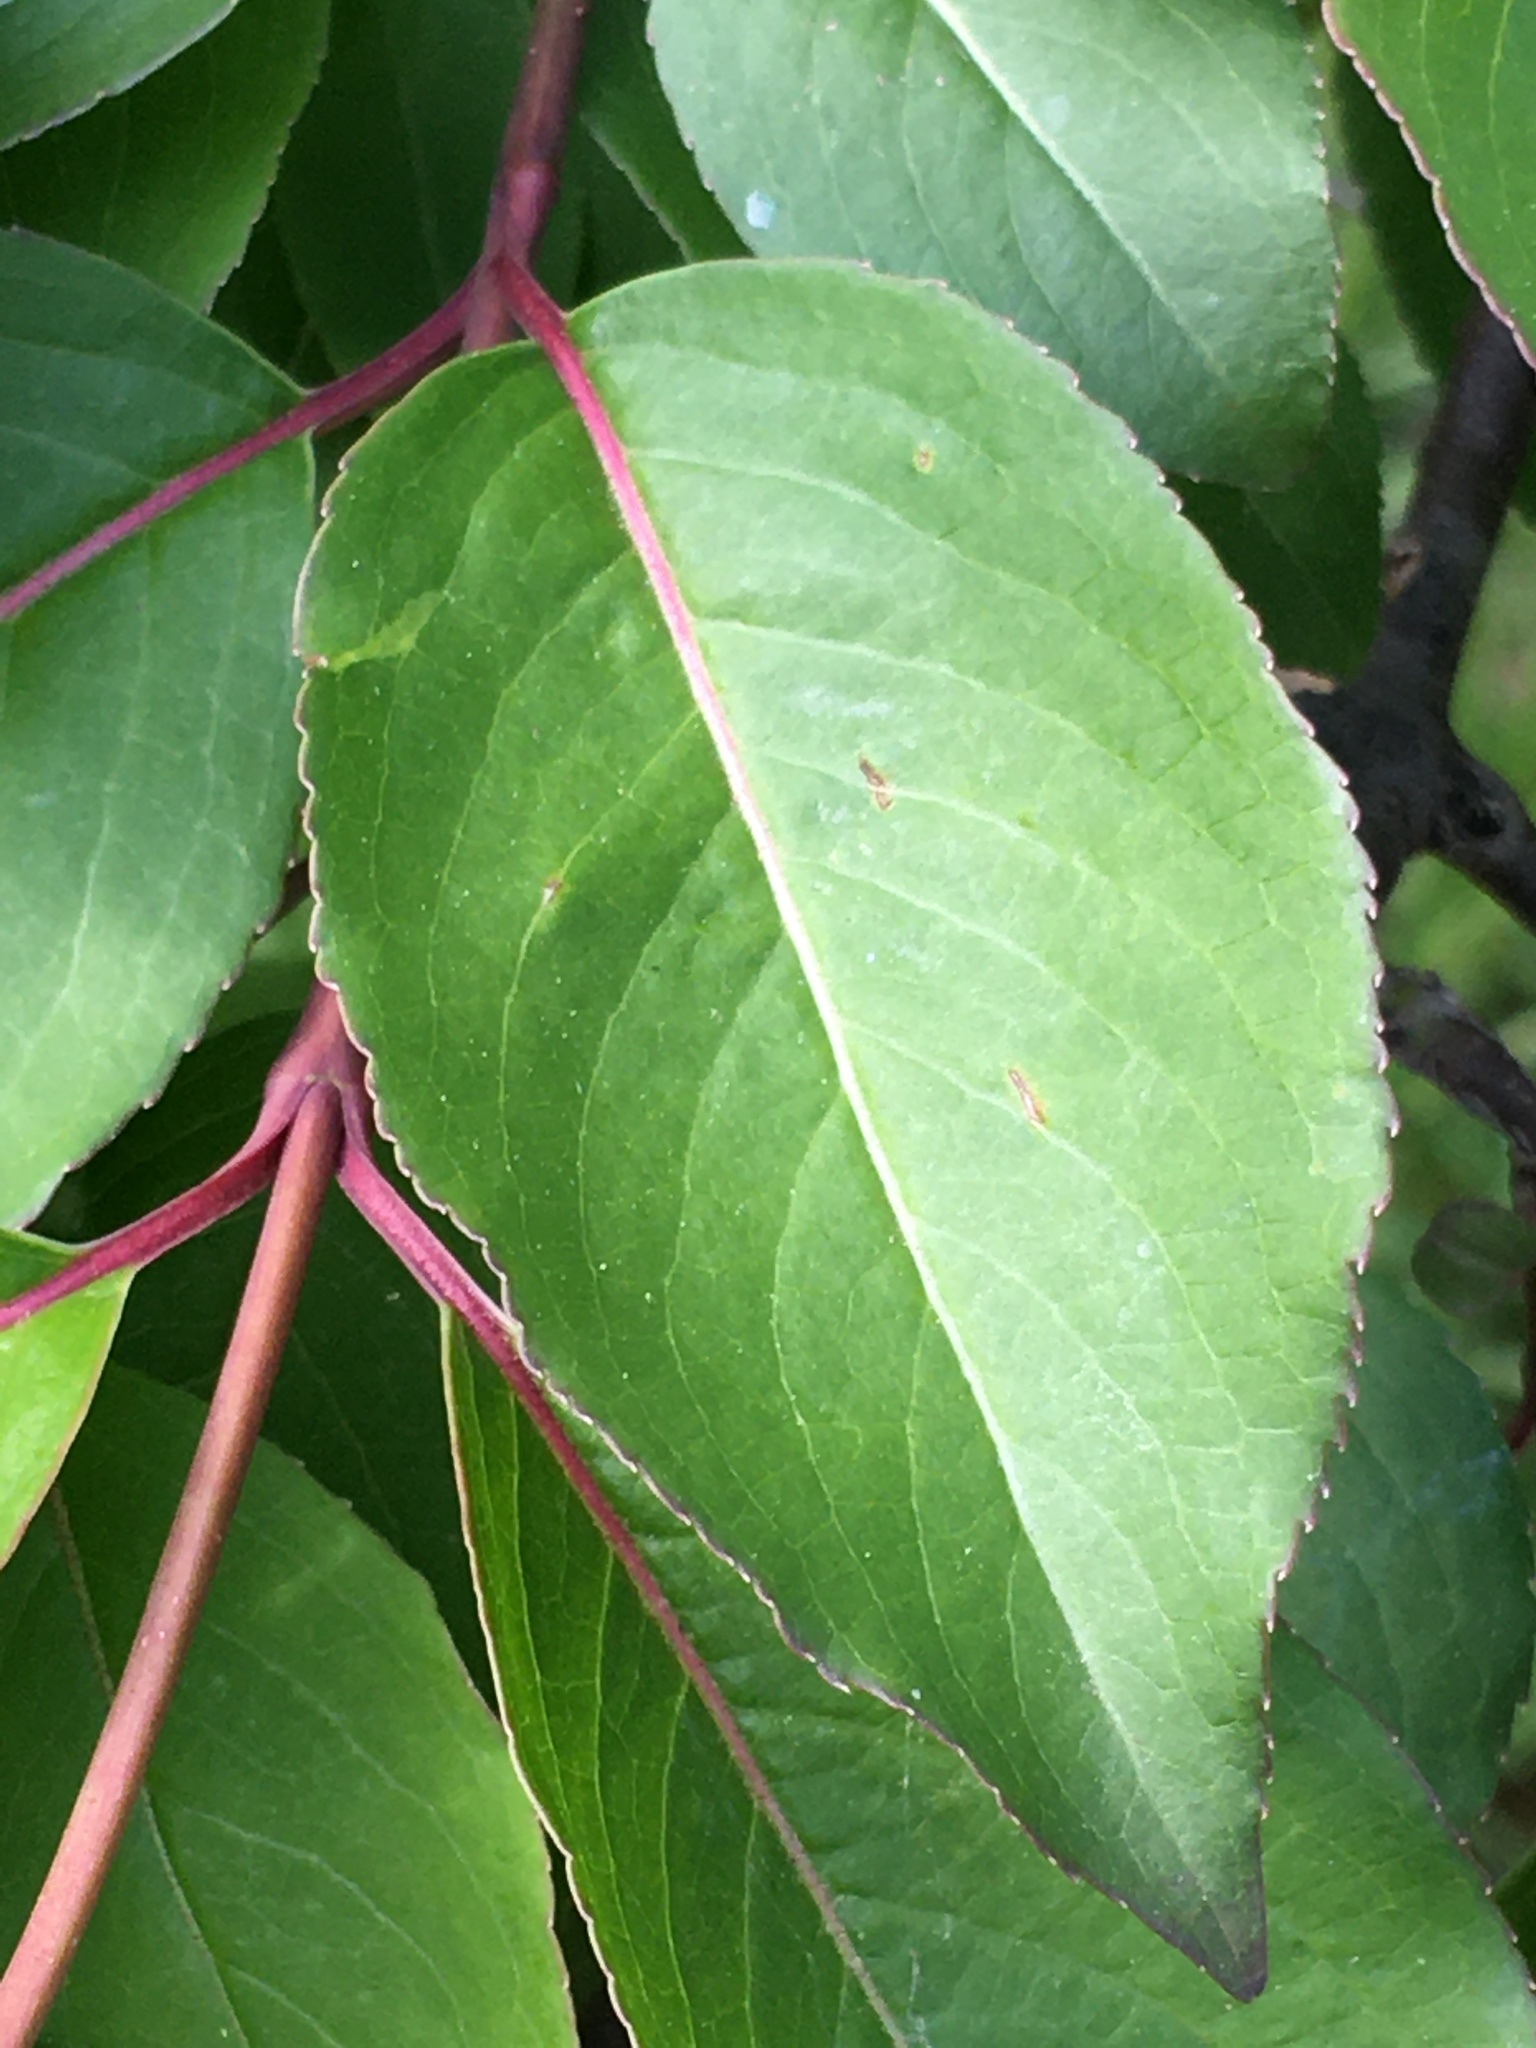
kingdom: Plantae
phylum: Tracheophyta
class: Magnoliopsida
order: Dipsacales
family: Viburnaceae
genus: Viburnum
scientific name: Viburnum prunifolium
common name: Black haw
